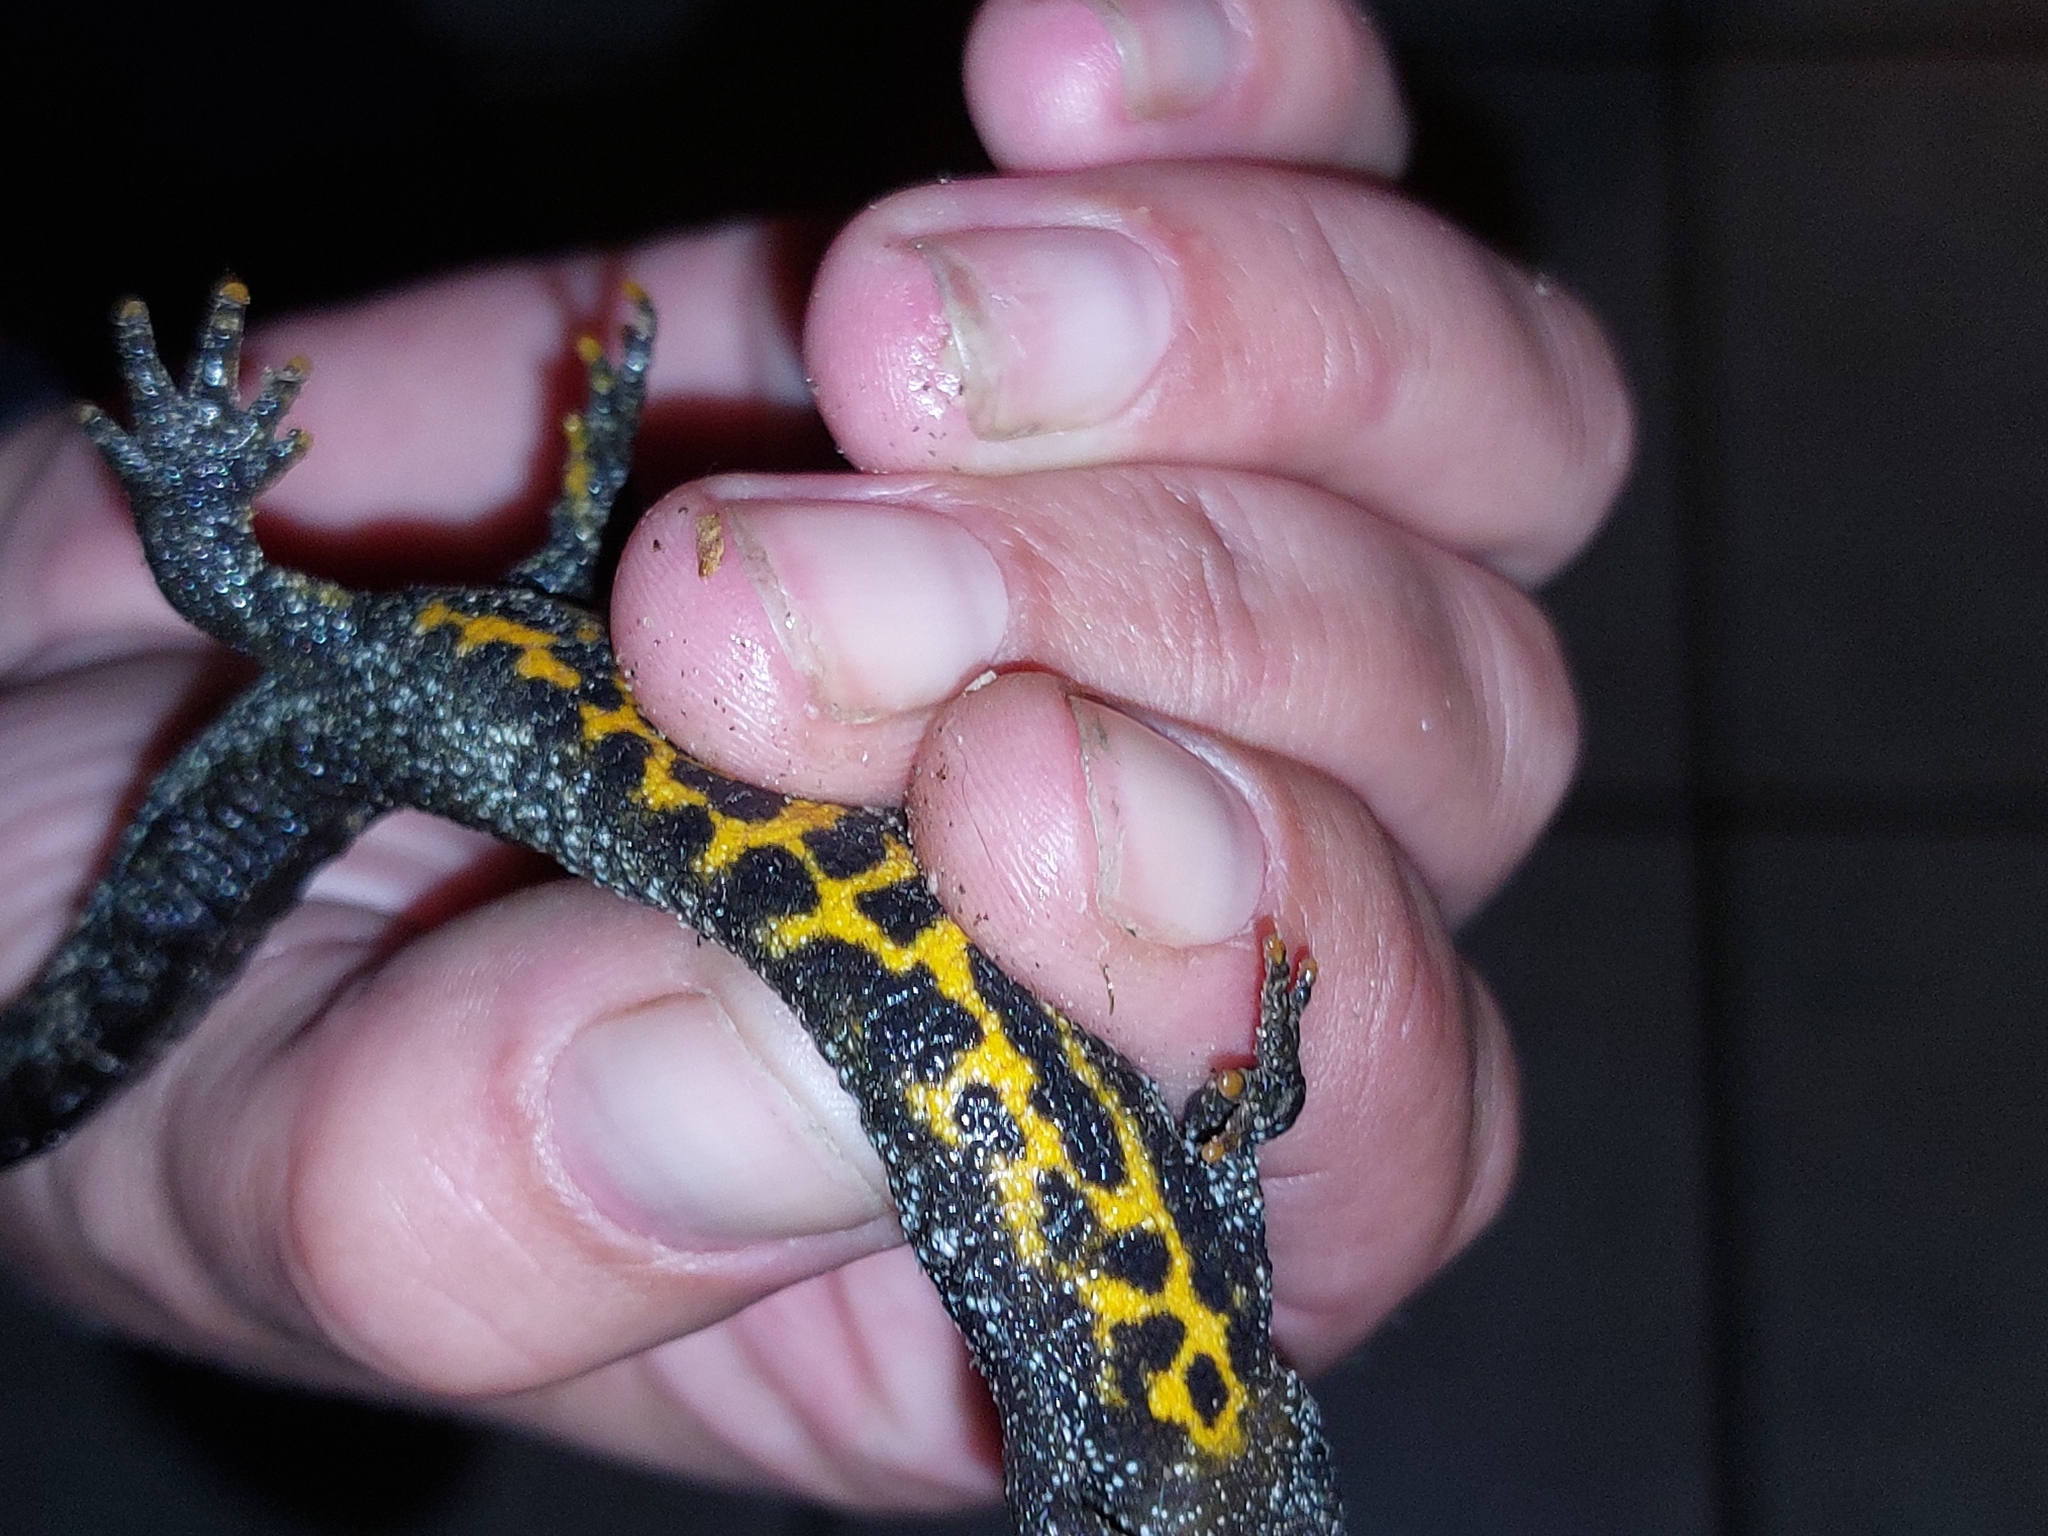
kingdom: Animalia
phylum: Chordata
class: Amphibia
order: Caudata
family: Salamandridae
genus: Triturus
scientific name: Triturus cristatus
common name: Crested newt
